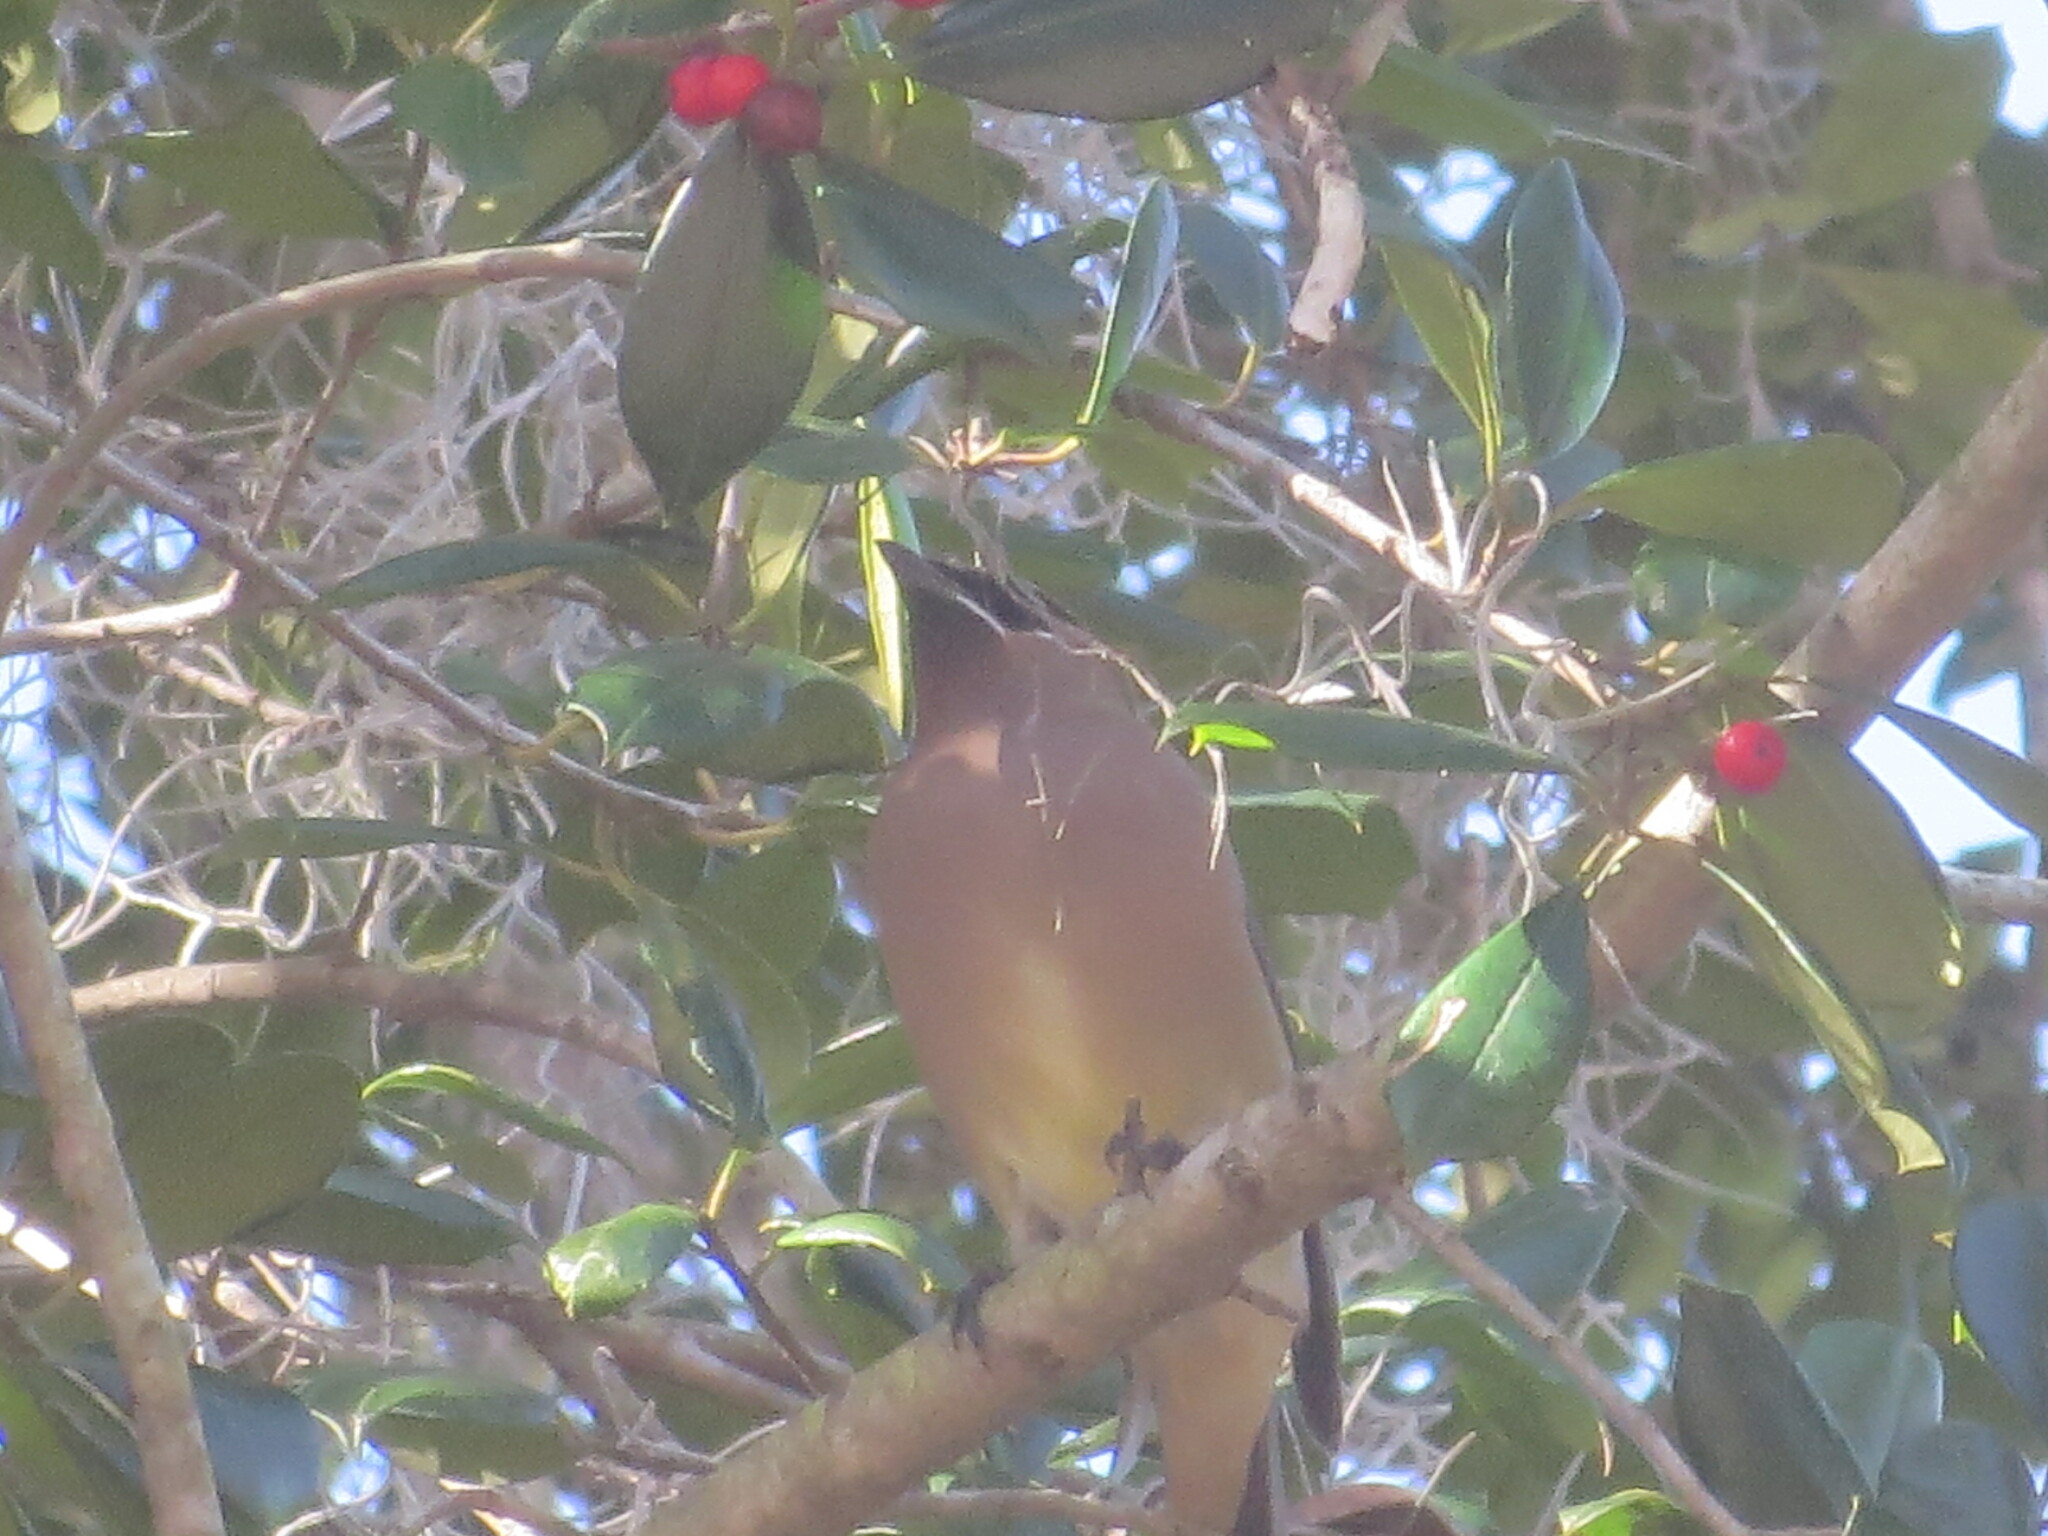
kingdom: Animalia
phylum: Chordata
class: Aves
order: Passeriformes
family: Bombycillidae
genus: Bombycilla
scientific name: Bombycilla cedrorum
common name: Cedar waxwing
